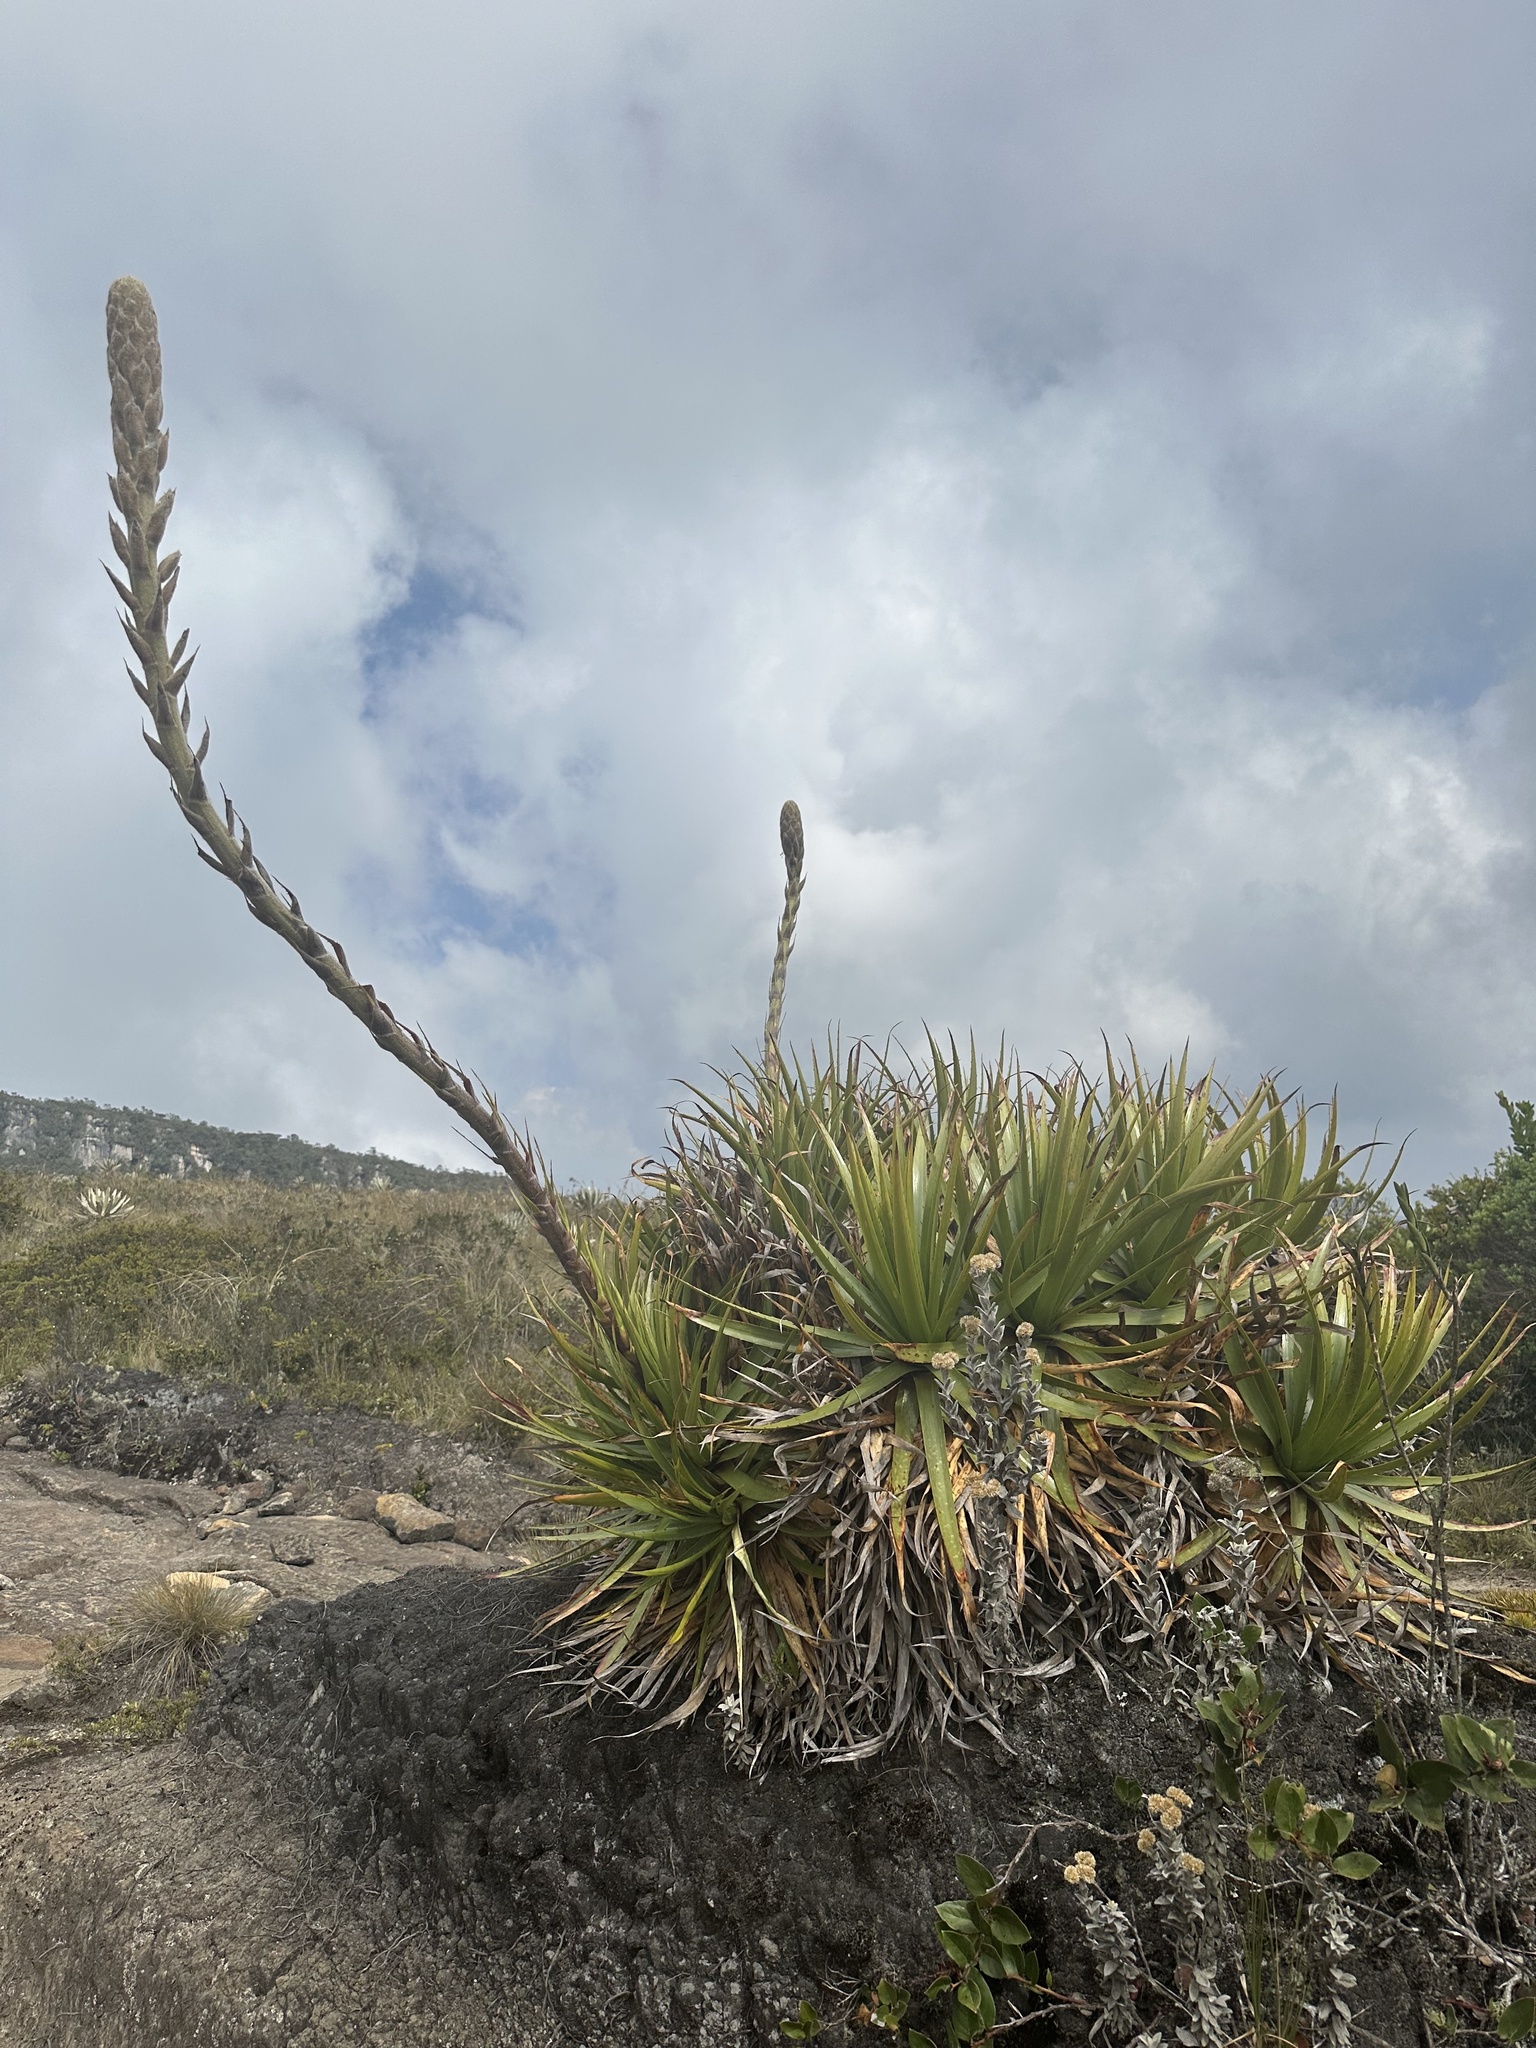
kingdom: Plantae
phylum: Tracheophyta
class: Liliopsida
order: Poales
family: Bromeliaceae
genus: Puya
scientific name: Puya nitida
